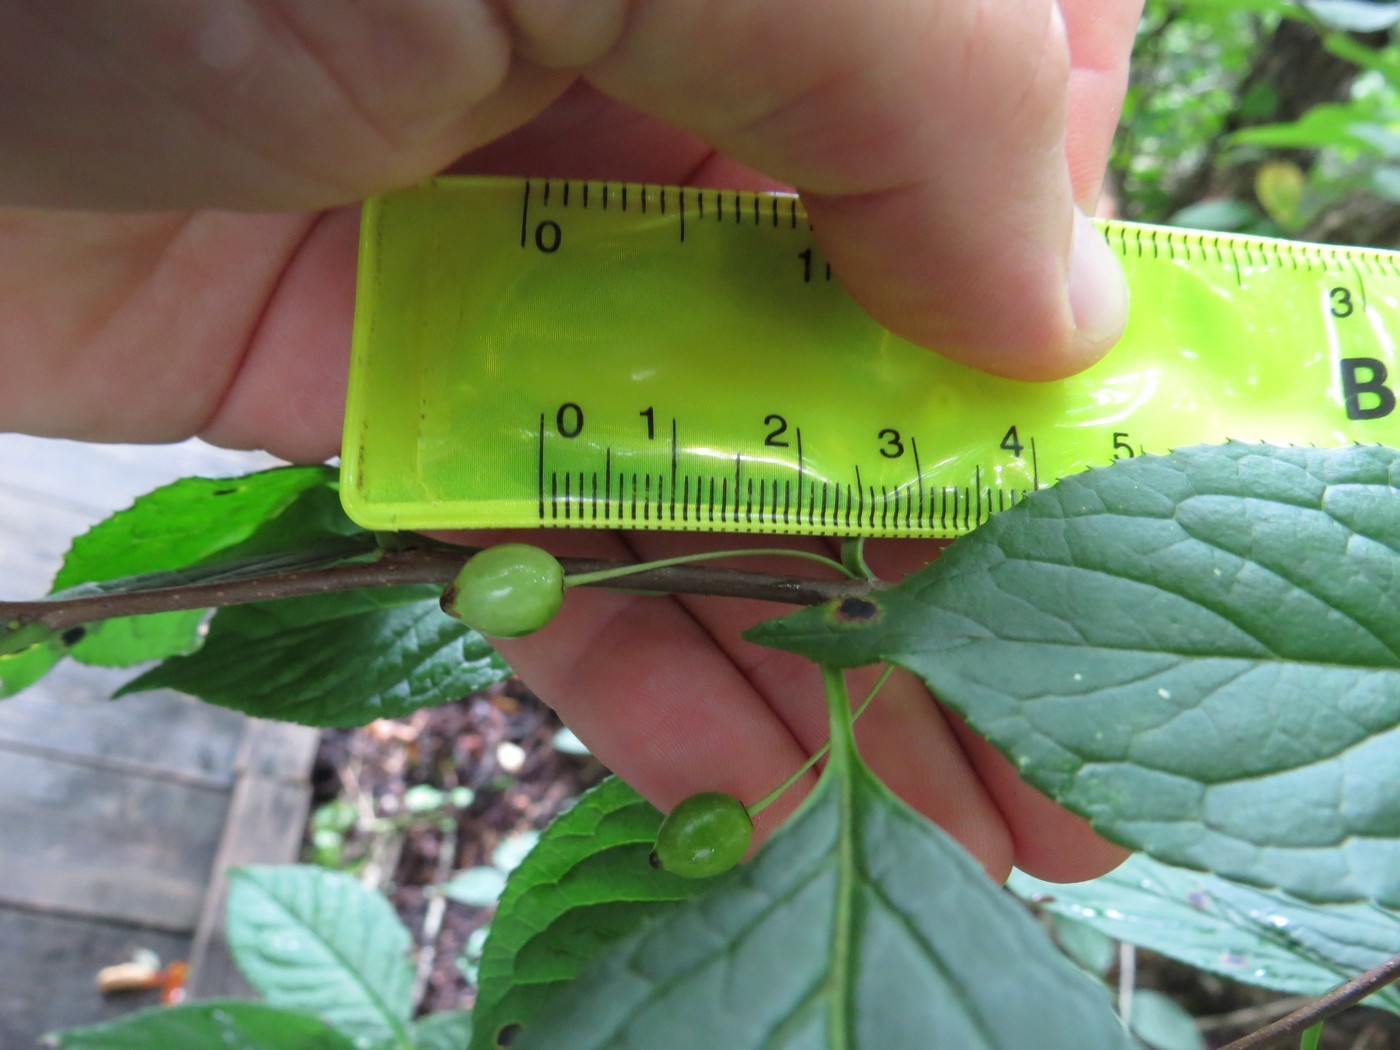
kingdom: Plantae
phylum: Tracheophyta
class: Magnoliopsida
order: Aquifoliales
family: Aquifoliaceae
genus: Ilex
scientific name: Ilex collina
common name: Long stalk holly
